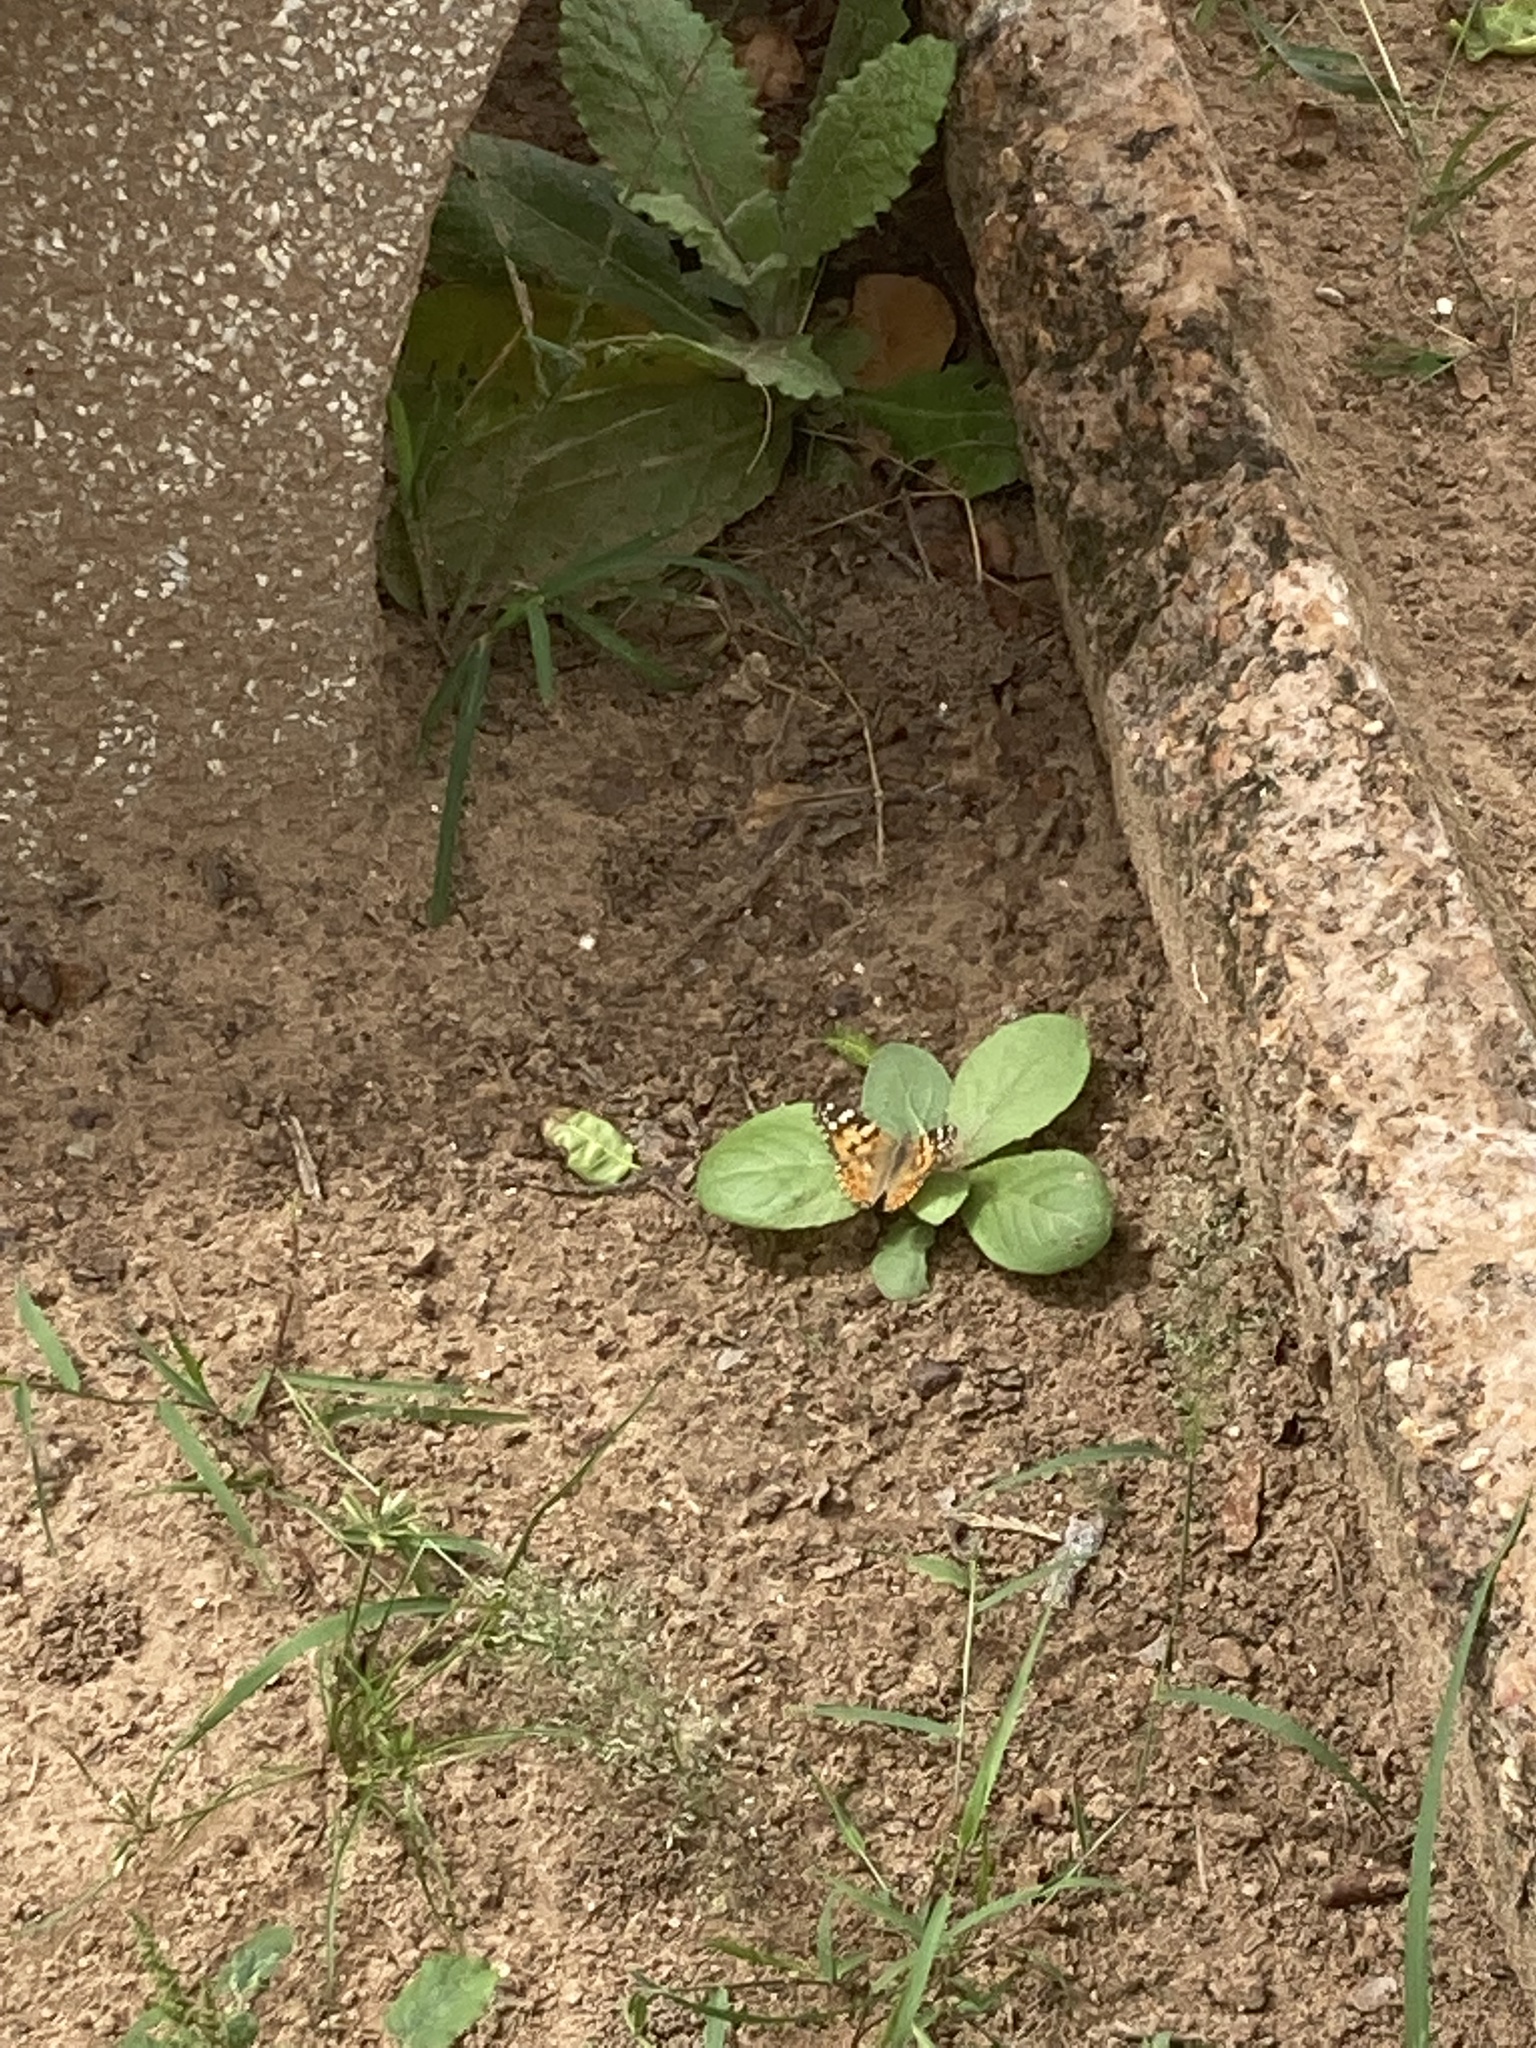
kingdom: Animalia
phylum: Arthropoda
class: Insecta
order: Lepidoptera
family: Nymphalidae
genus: Vanessa
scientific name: Vanessa cardui
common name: Painted lady
